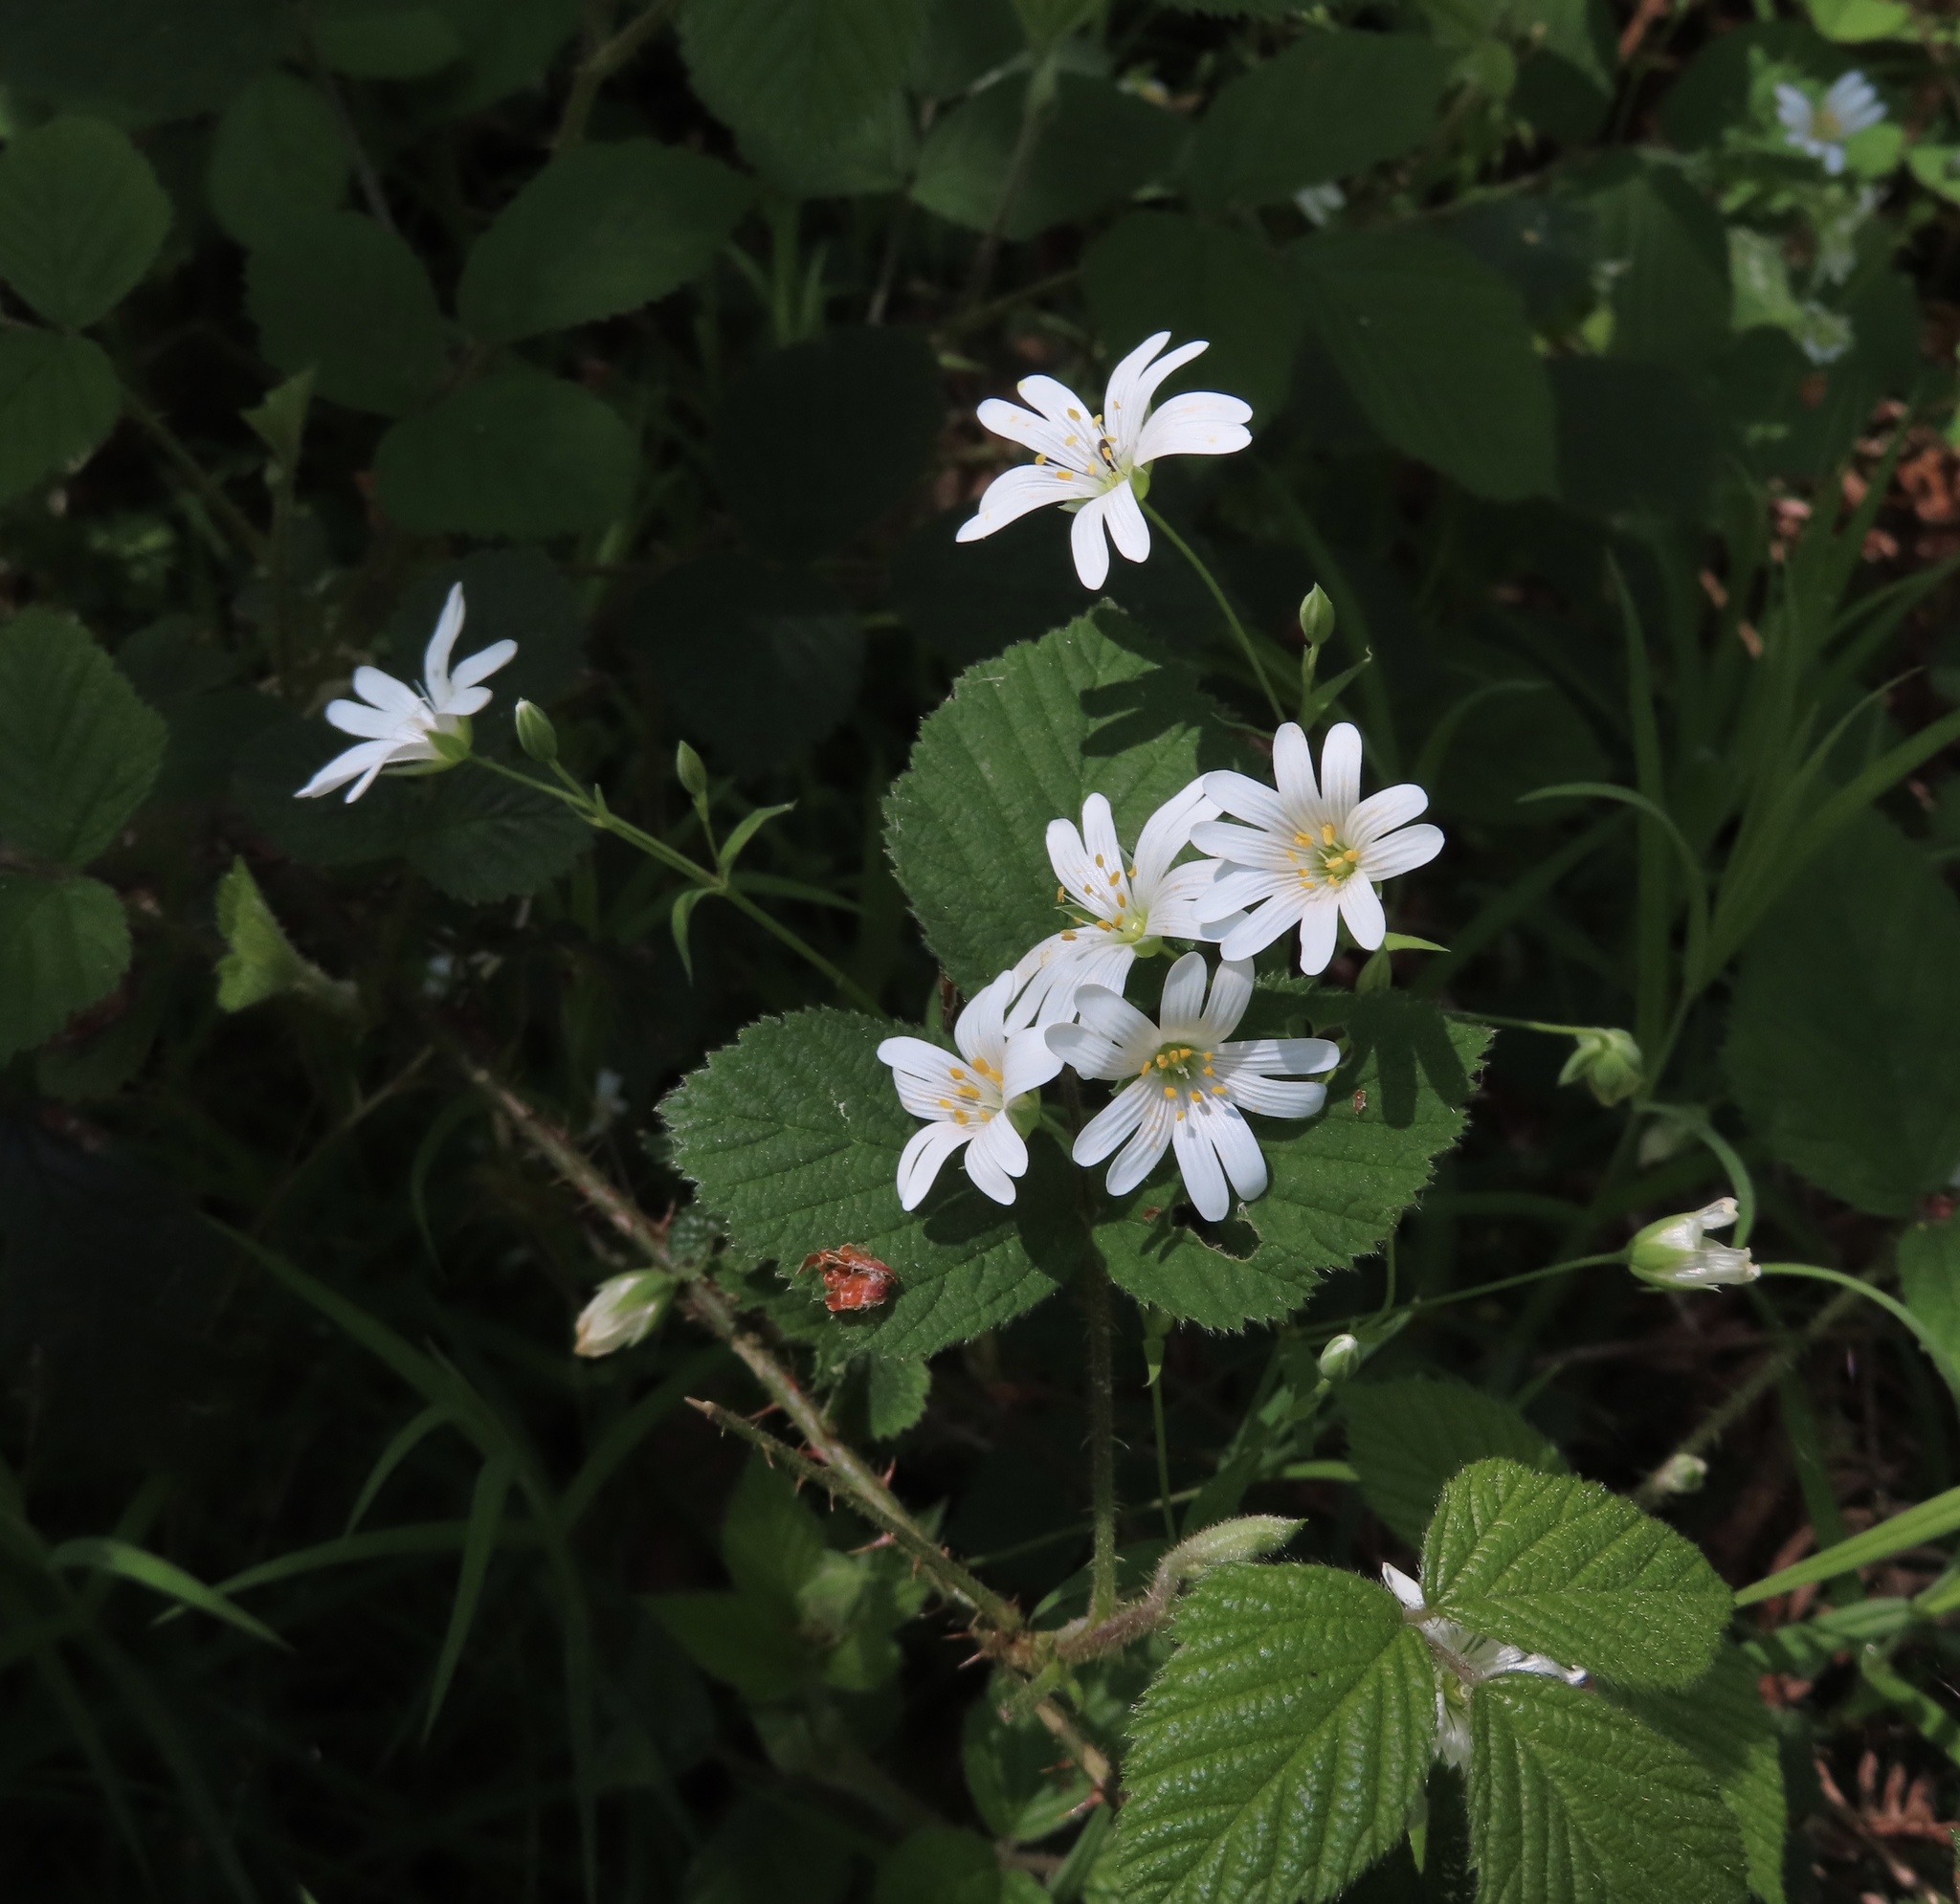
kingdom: Plantae
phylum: Tracheophyta
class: Magnoliopsida
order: Caryophyllales
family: Caryophyllaceae
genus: Rabelera
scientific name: Rabelera holostea
